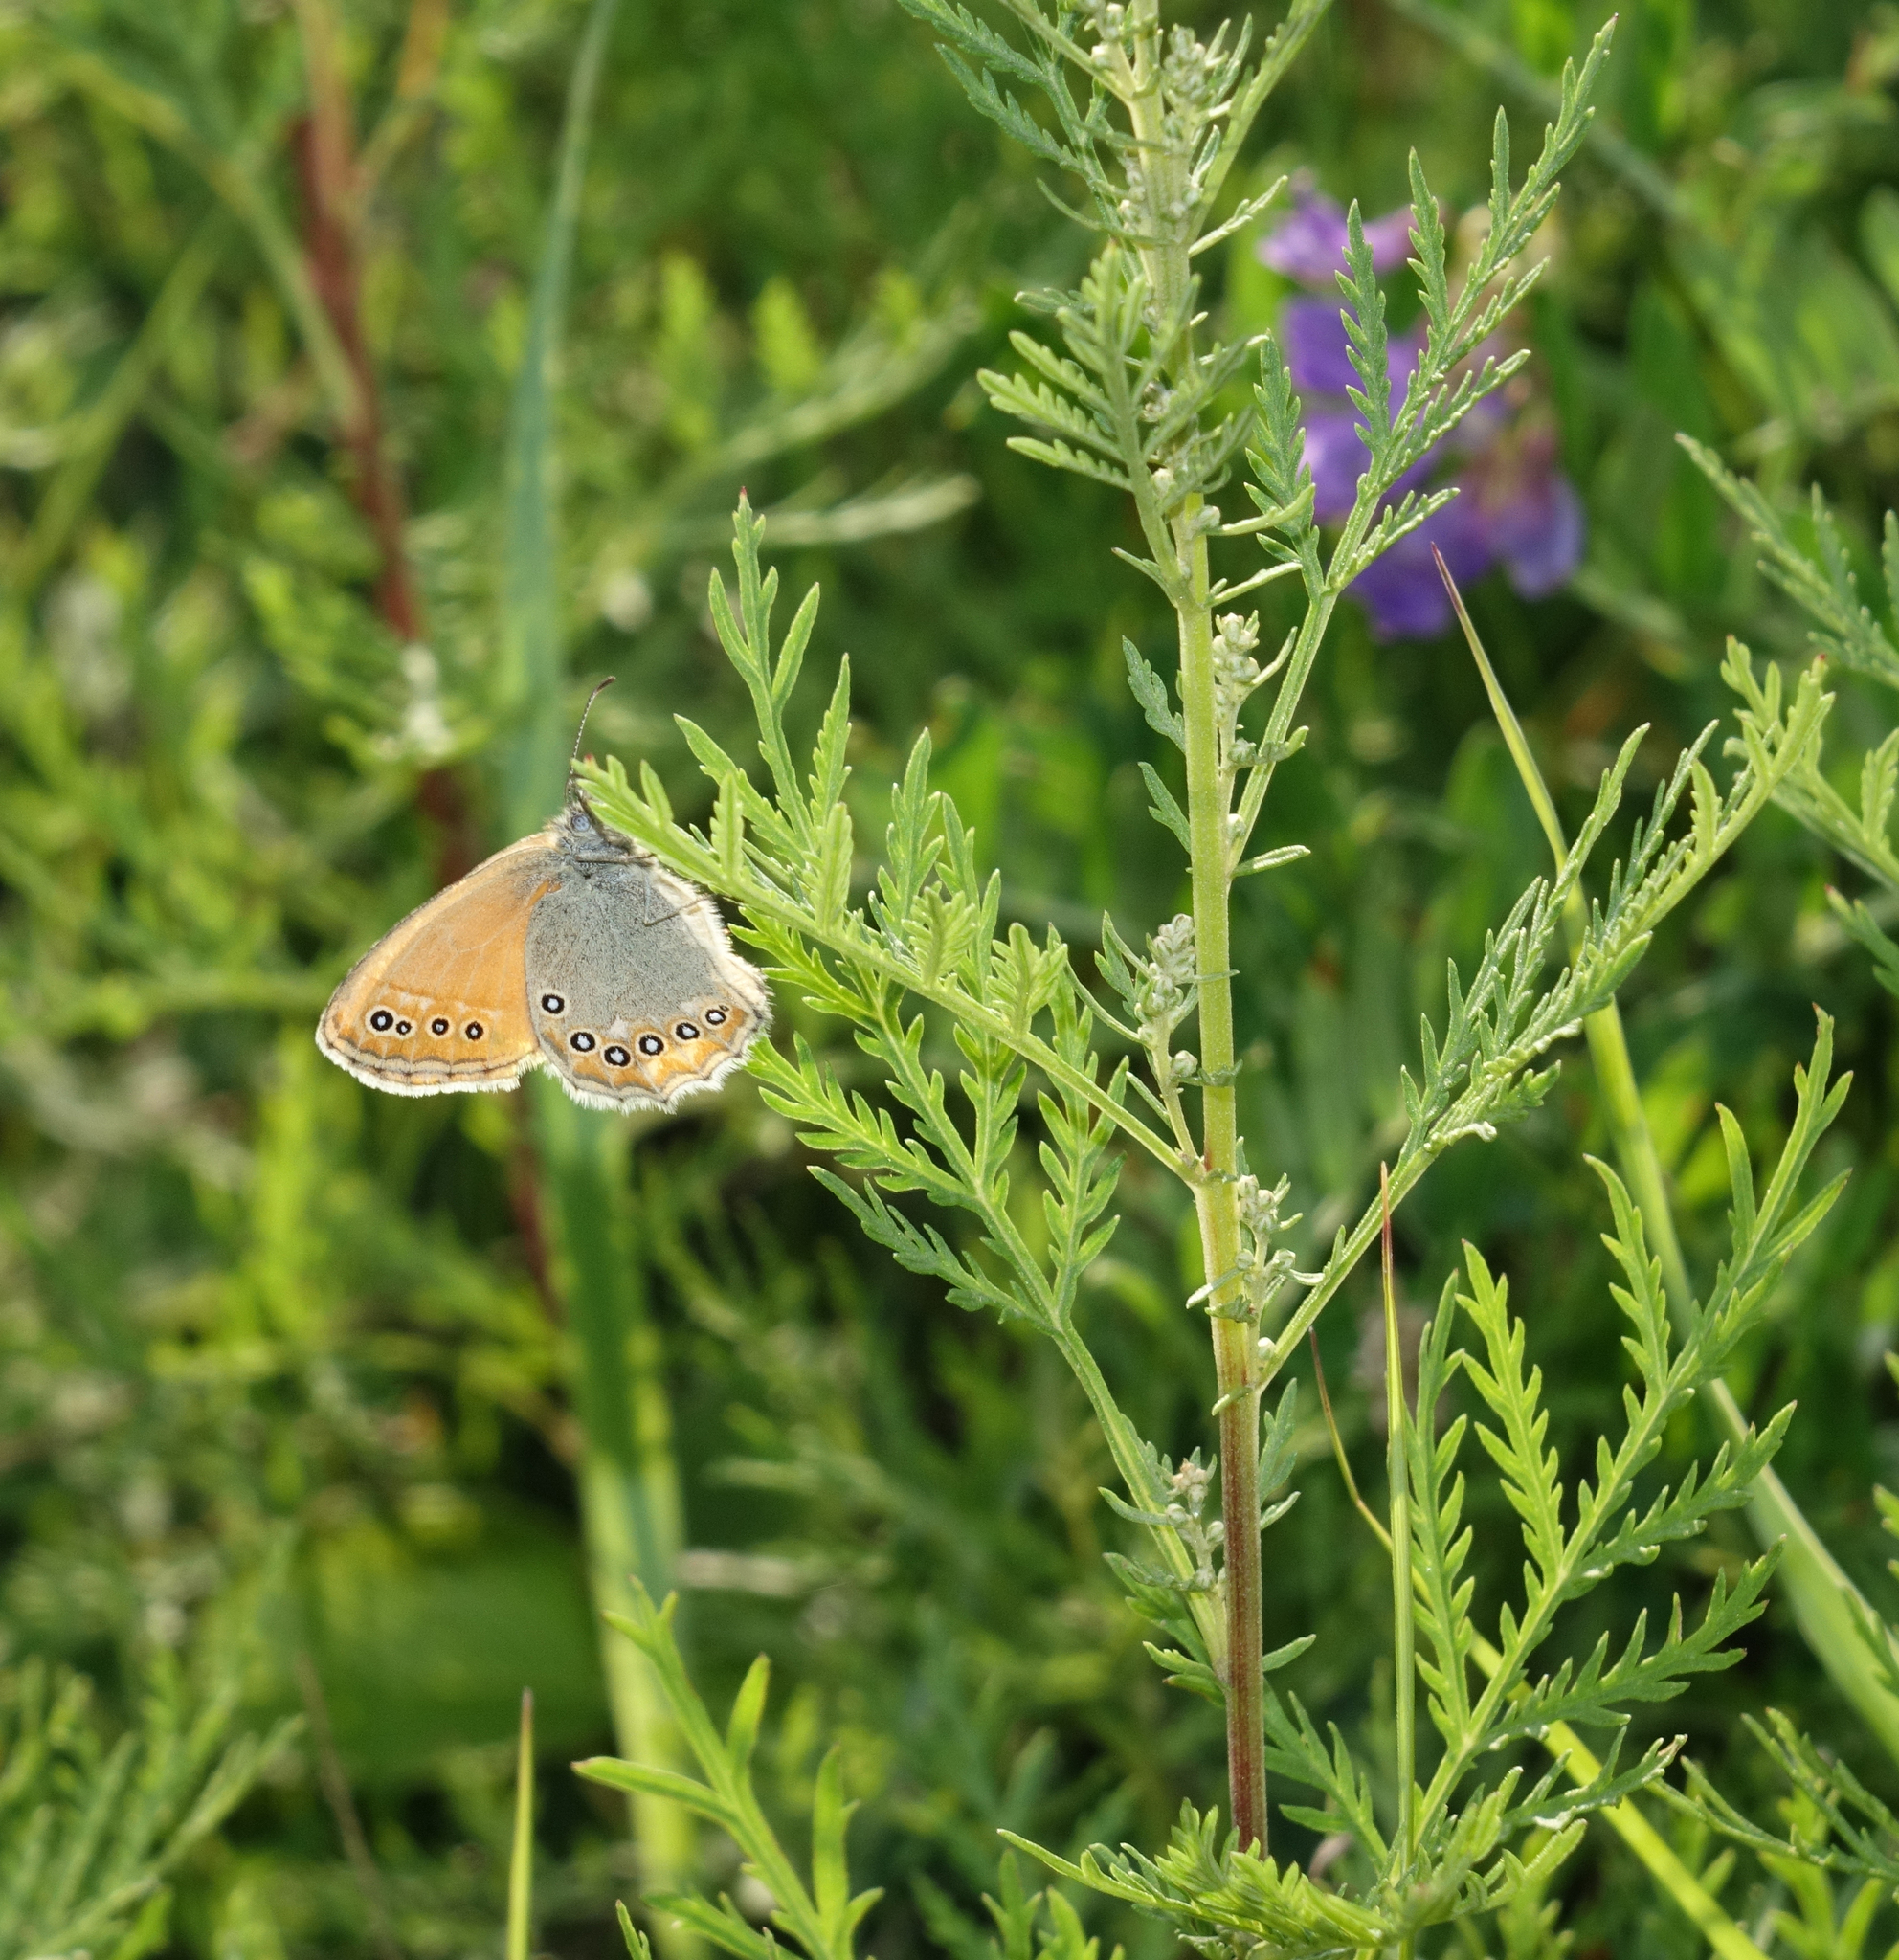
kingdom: Animalia
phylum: Arthropoda
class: Insecta
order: Lepidoptera
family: Nymphalidae
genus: Coenonympha
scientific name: Coenonympha amaryllis
